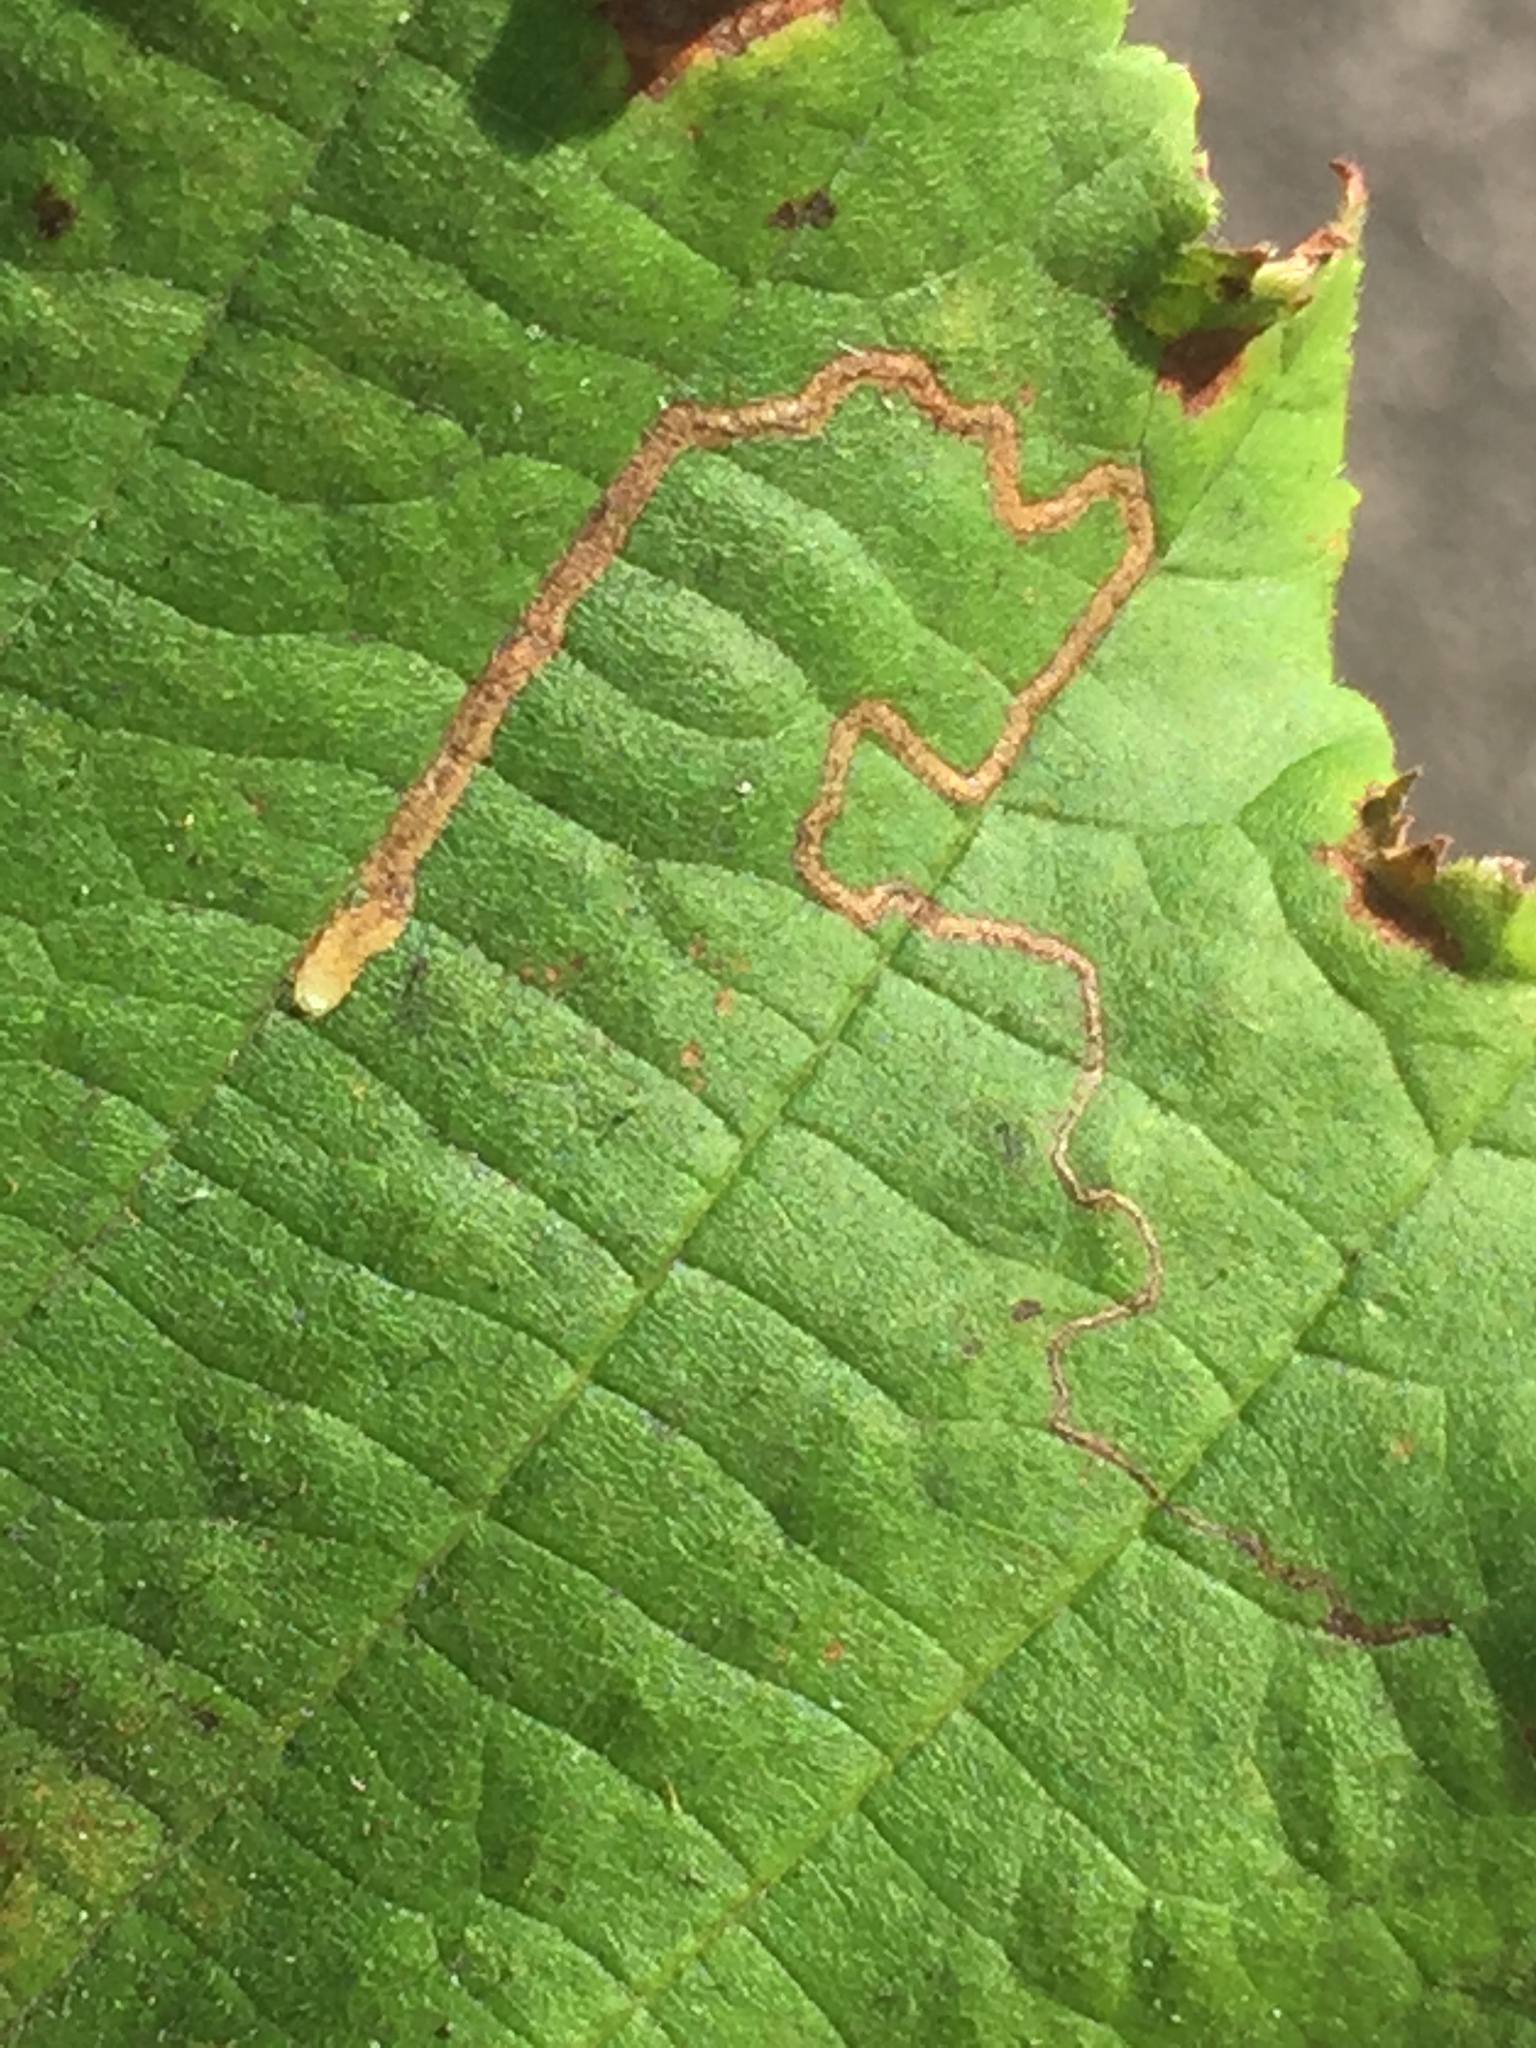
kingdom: Animalia
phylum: Arthropoda
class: Insecta
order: Lepidoptera
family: Nepticulidae
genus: Stigmella
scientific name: Stigmella microtheriella
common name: Nut-tree pigmy
